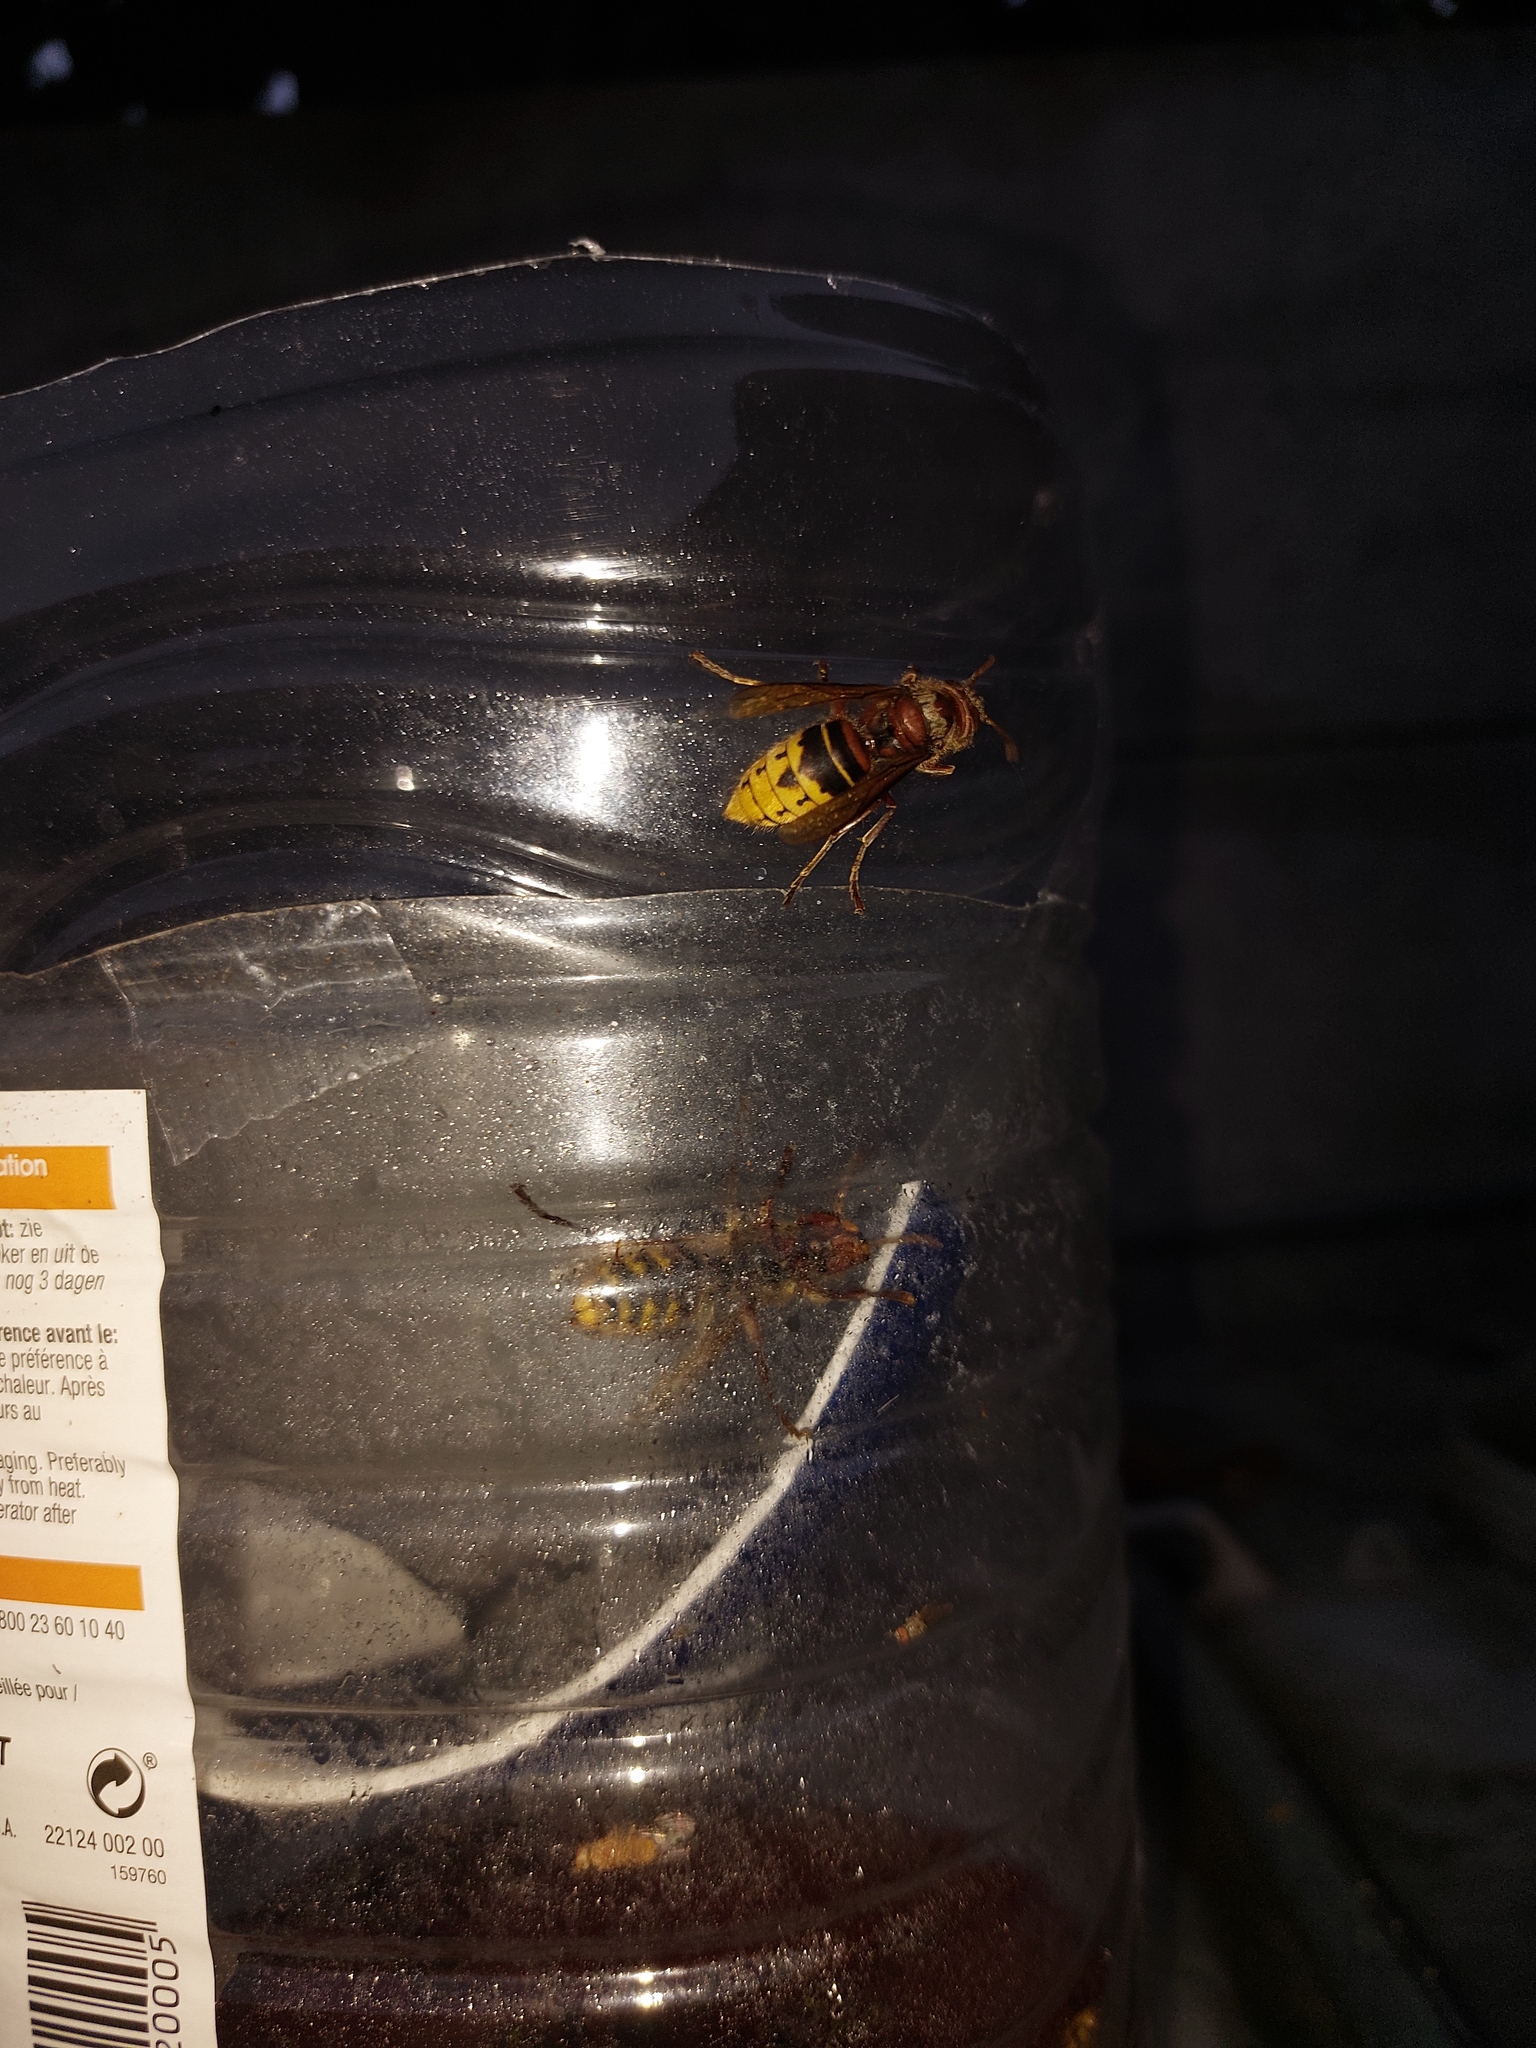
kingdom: Animalia
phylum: Arthropoda
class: Insecta
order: Hymenoptera
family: Vespidae
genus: Vespa
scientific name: Vespa crabro
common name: Hornet
